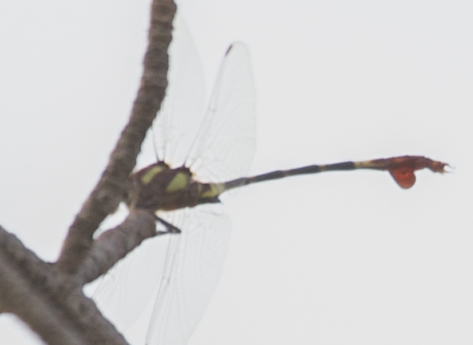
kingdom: Animalia
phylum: Arthropoda
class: Insecta
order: Odonata
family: Gomphidae
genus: Phyllogomphus
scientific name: Phyllogomphus selysi
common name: Bold leaftail
